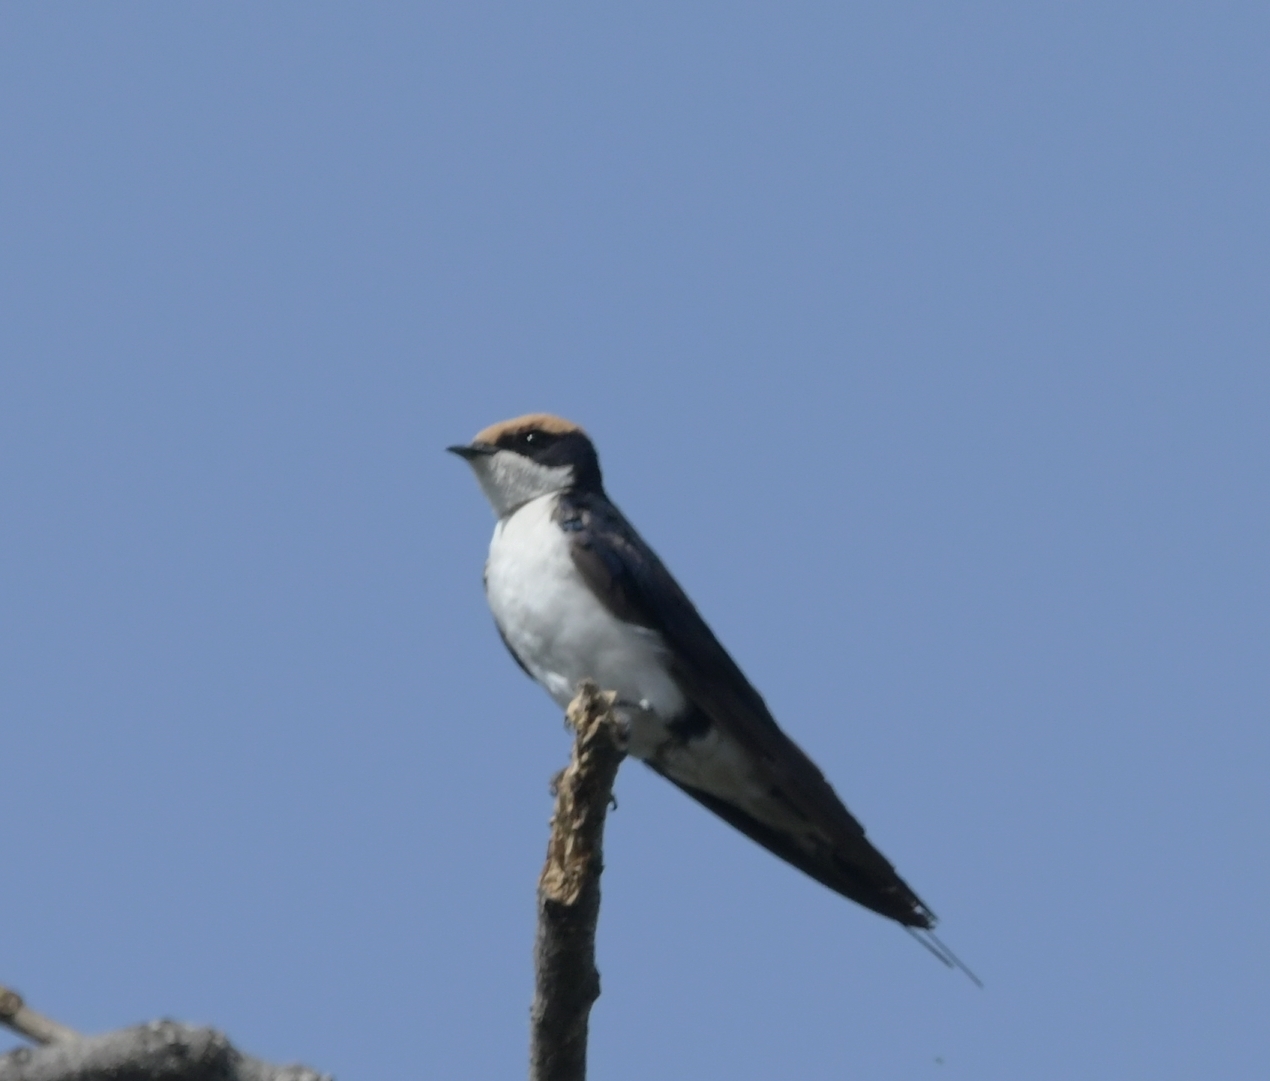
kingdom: Animalia
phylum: Chordata
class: Aves
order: Passeriformes
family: Hirundinidae
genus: Hirundo
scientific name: Hirundo smithii
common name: Wire-tailed swallow
